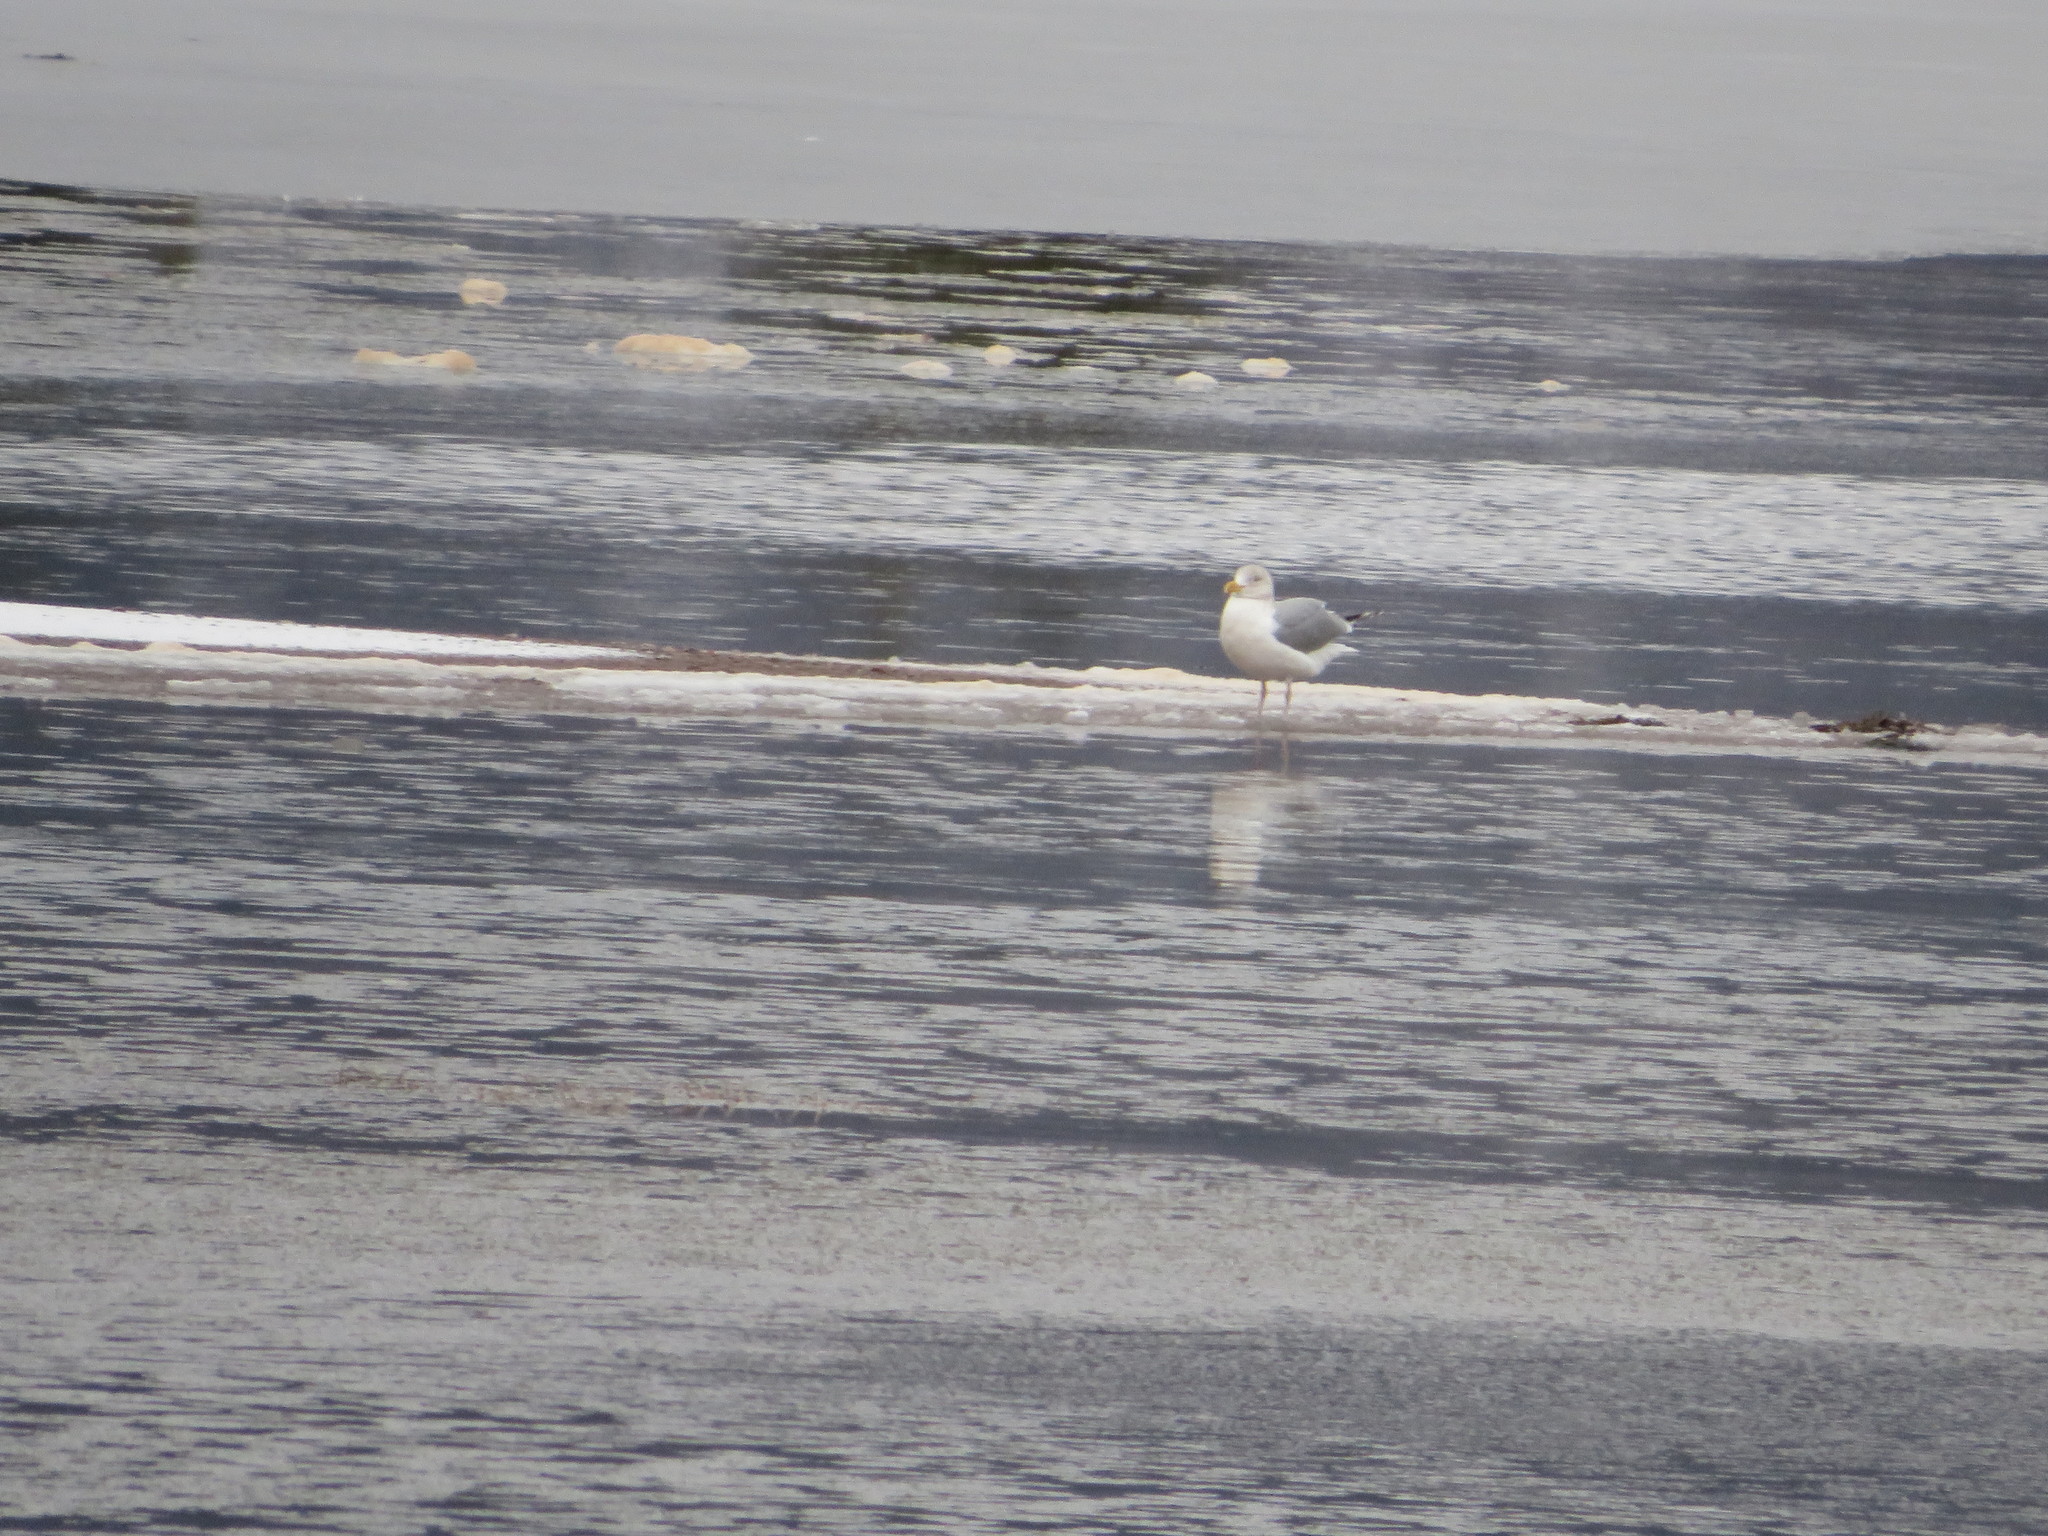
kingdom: Animalia
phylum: Chordata
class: Aves
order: Charadriiformes
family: Laridae
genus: Larus
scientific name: Larus argentatus
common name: Herring gull
